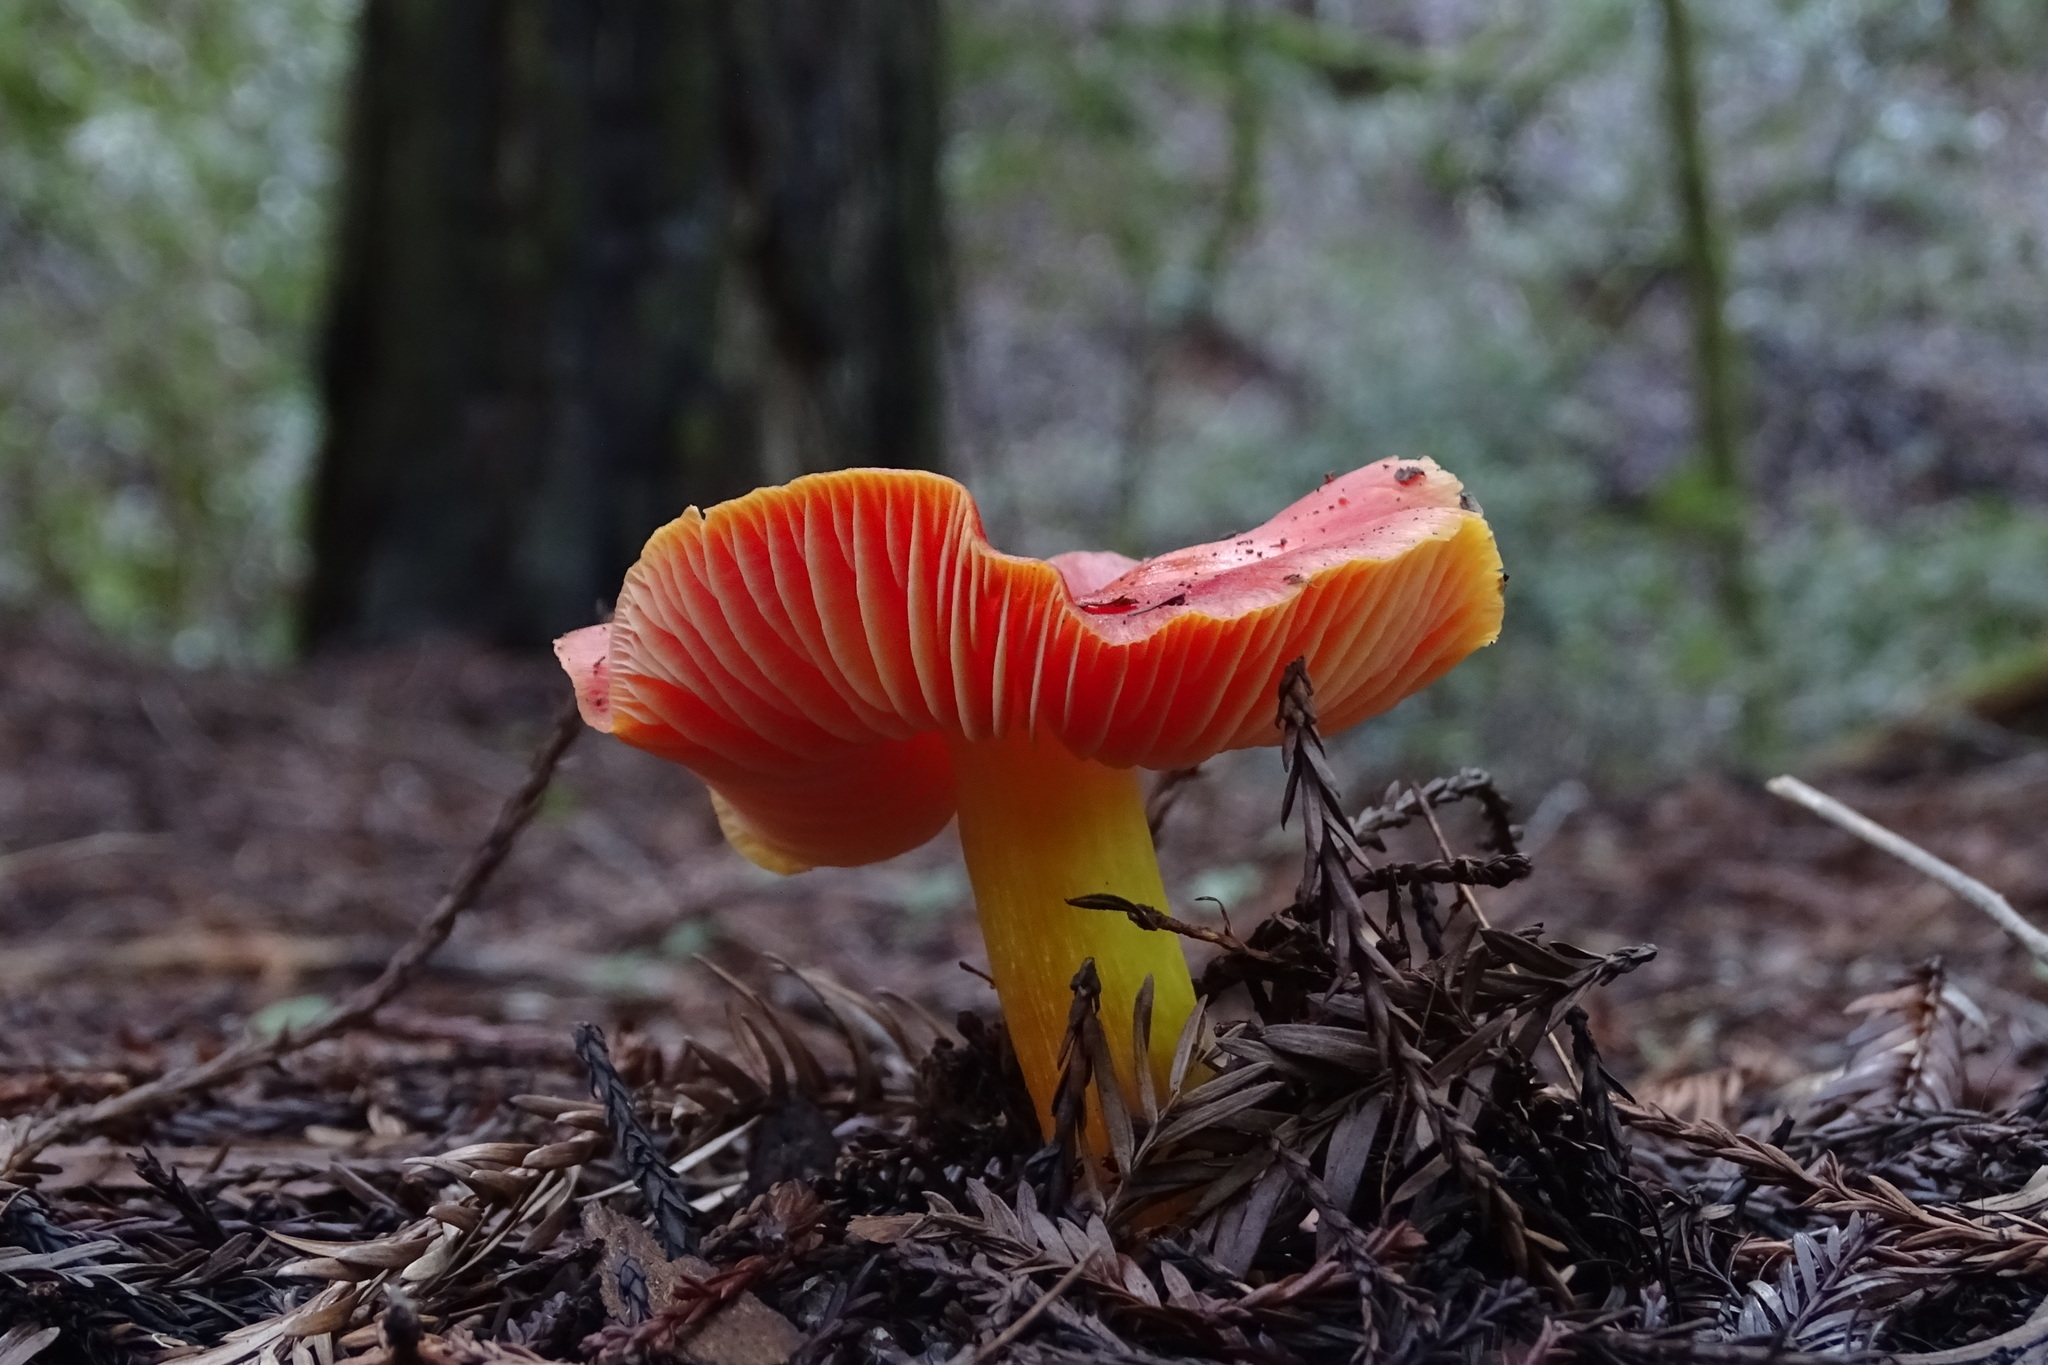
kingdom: Fungi
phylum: Basidiomycota
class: Agaricomycetes
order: Agaricales
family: Hygrophoraceae
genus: Hygrocybe
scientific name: Hygrocybe laetissima
